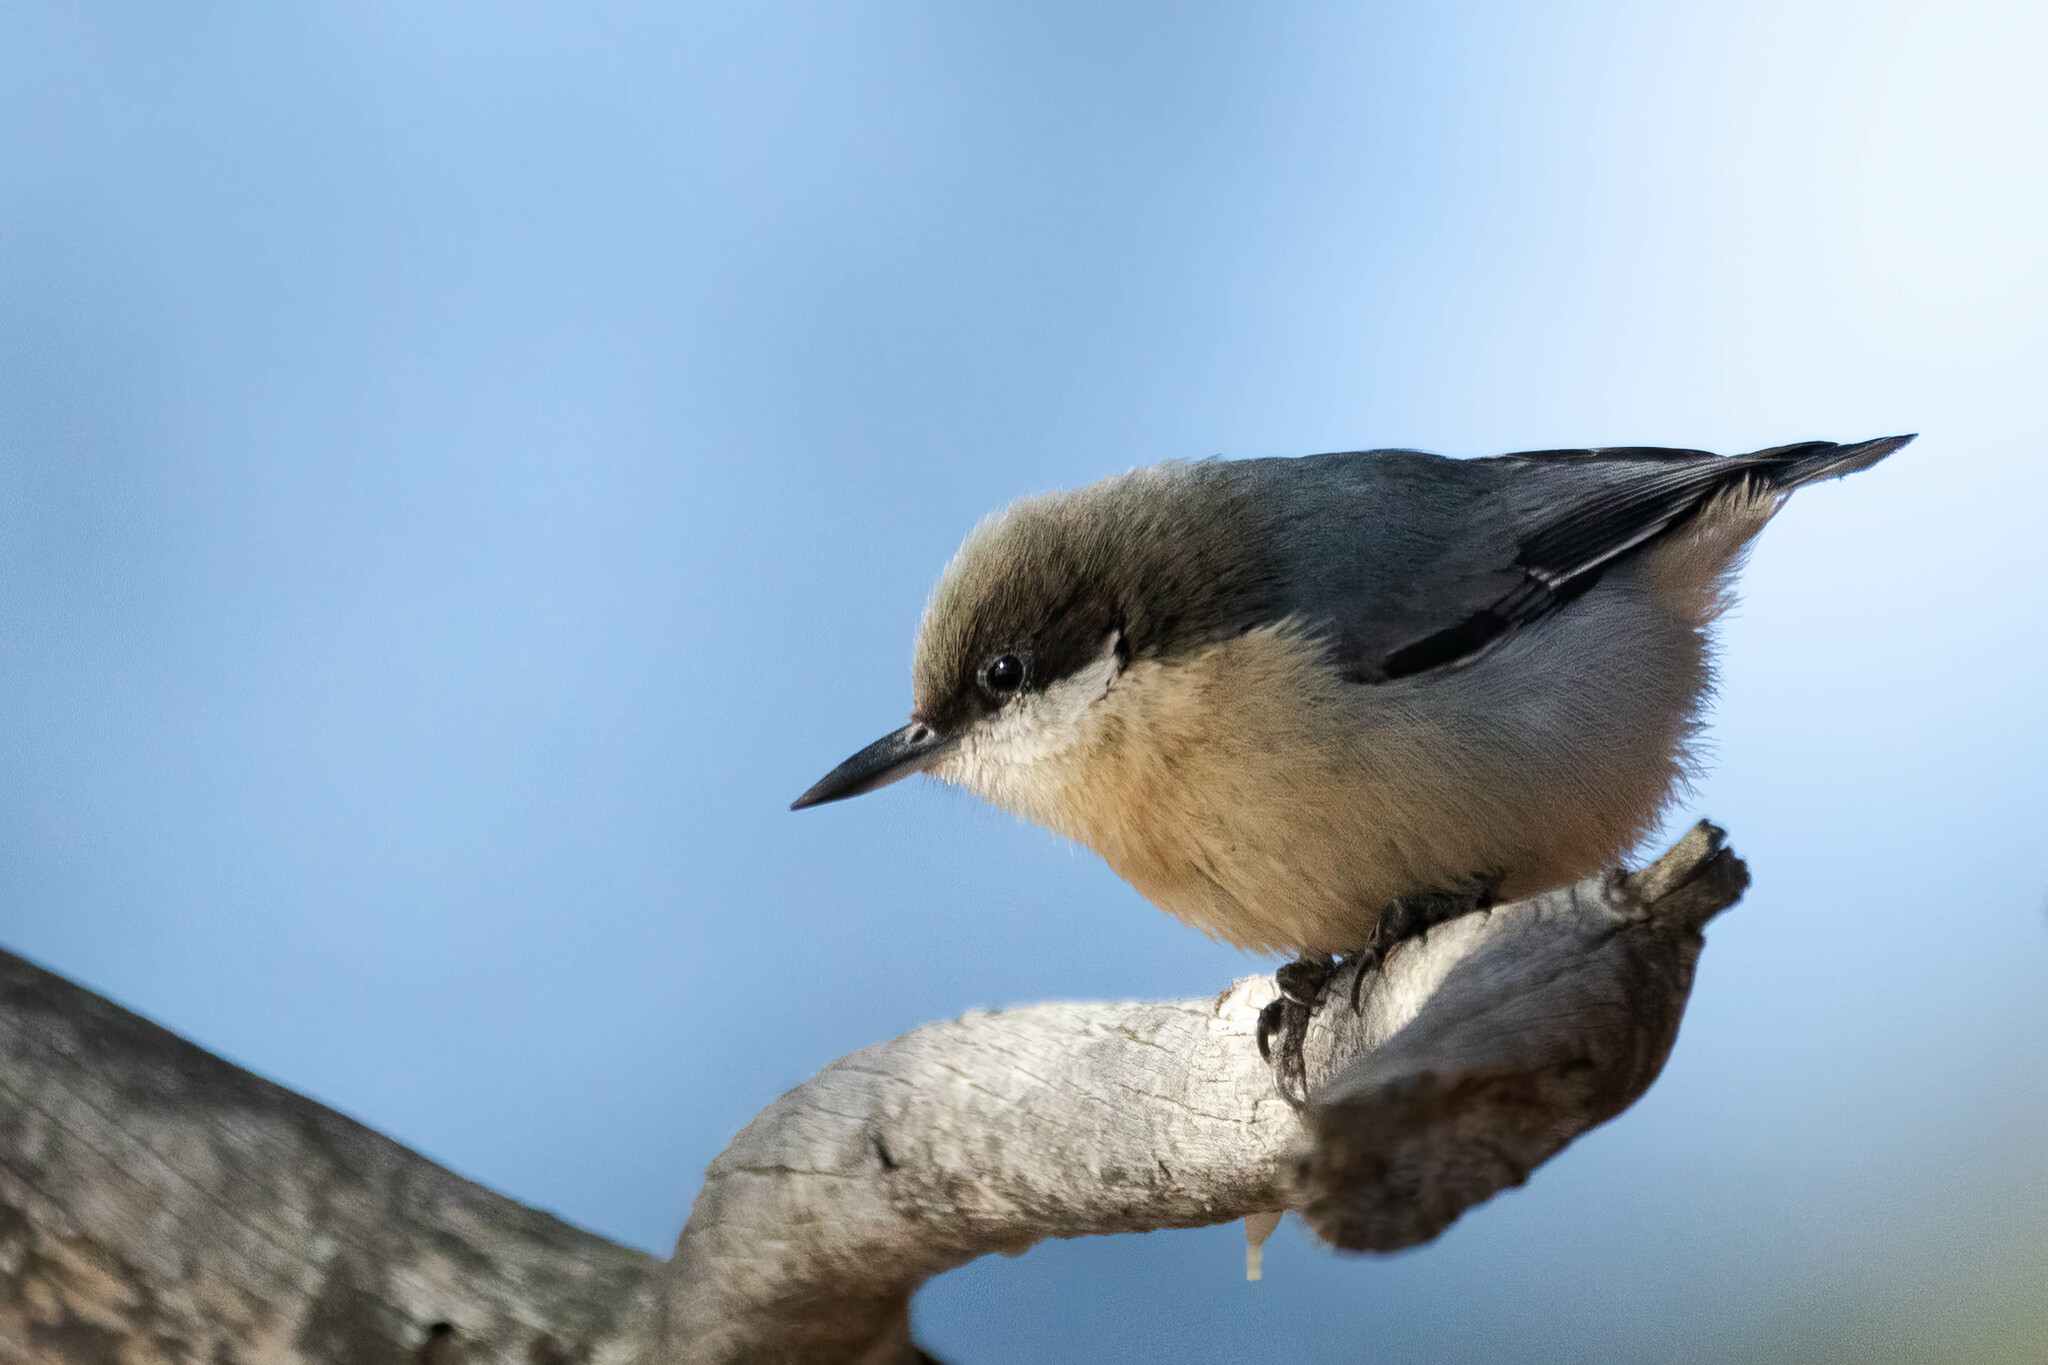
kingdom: Animalia
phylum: Chordata
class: Aves
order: Passeriformes
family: Sittidae
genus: Sitta
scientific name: Sitta pygmaea
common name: Pygmy nuthatch
